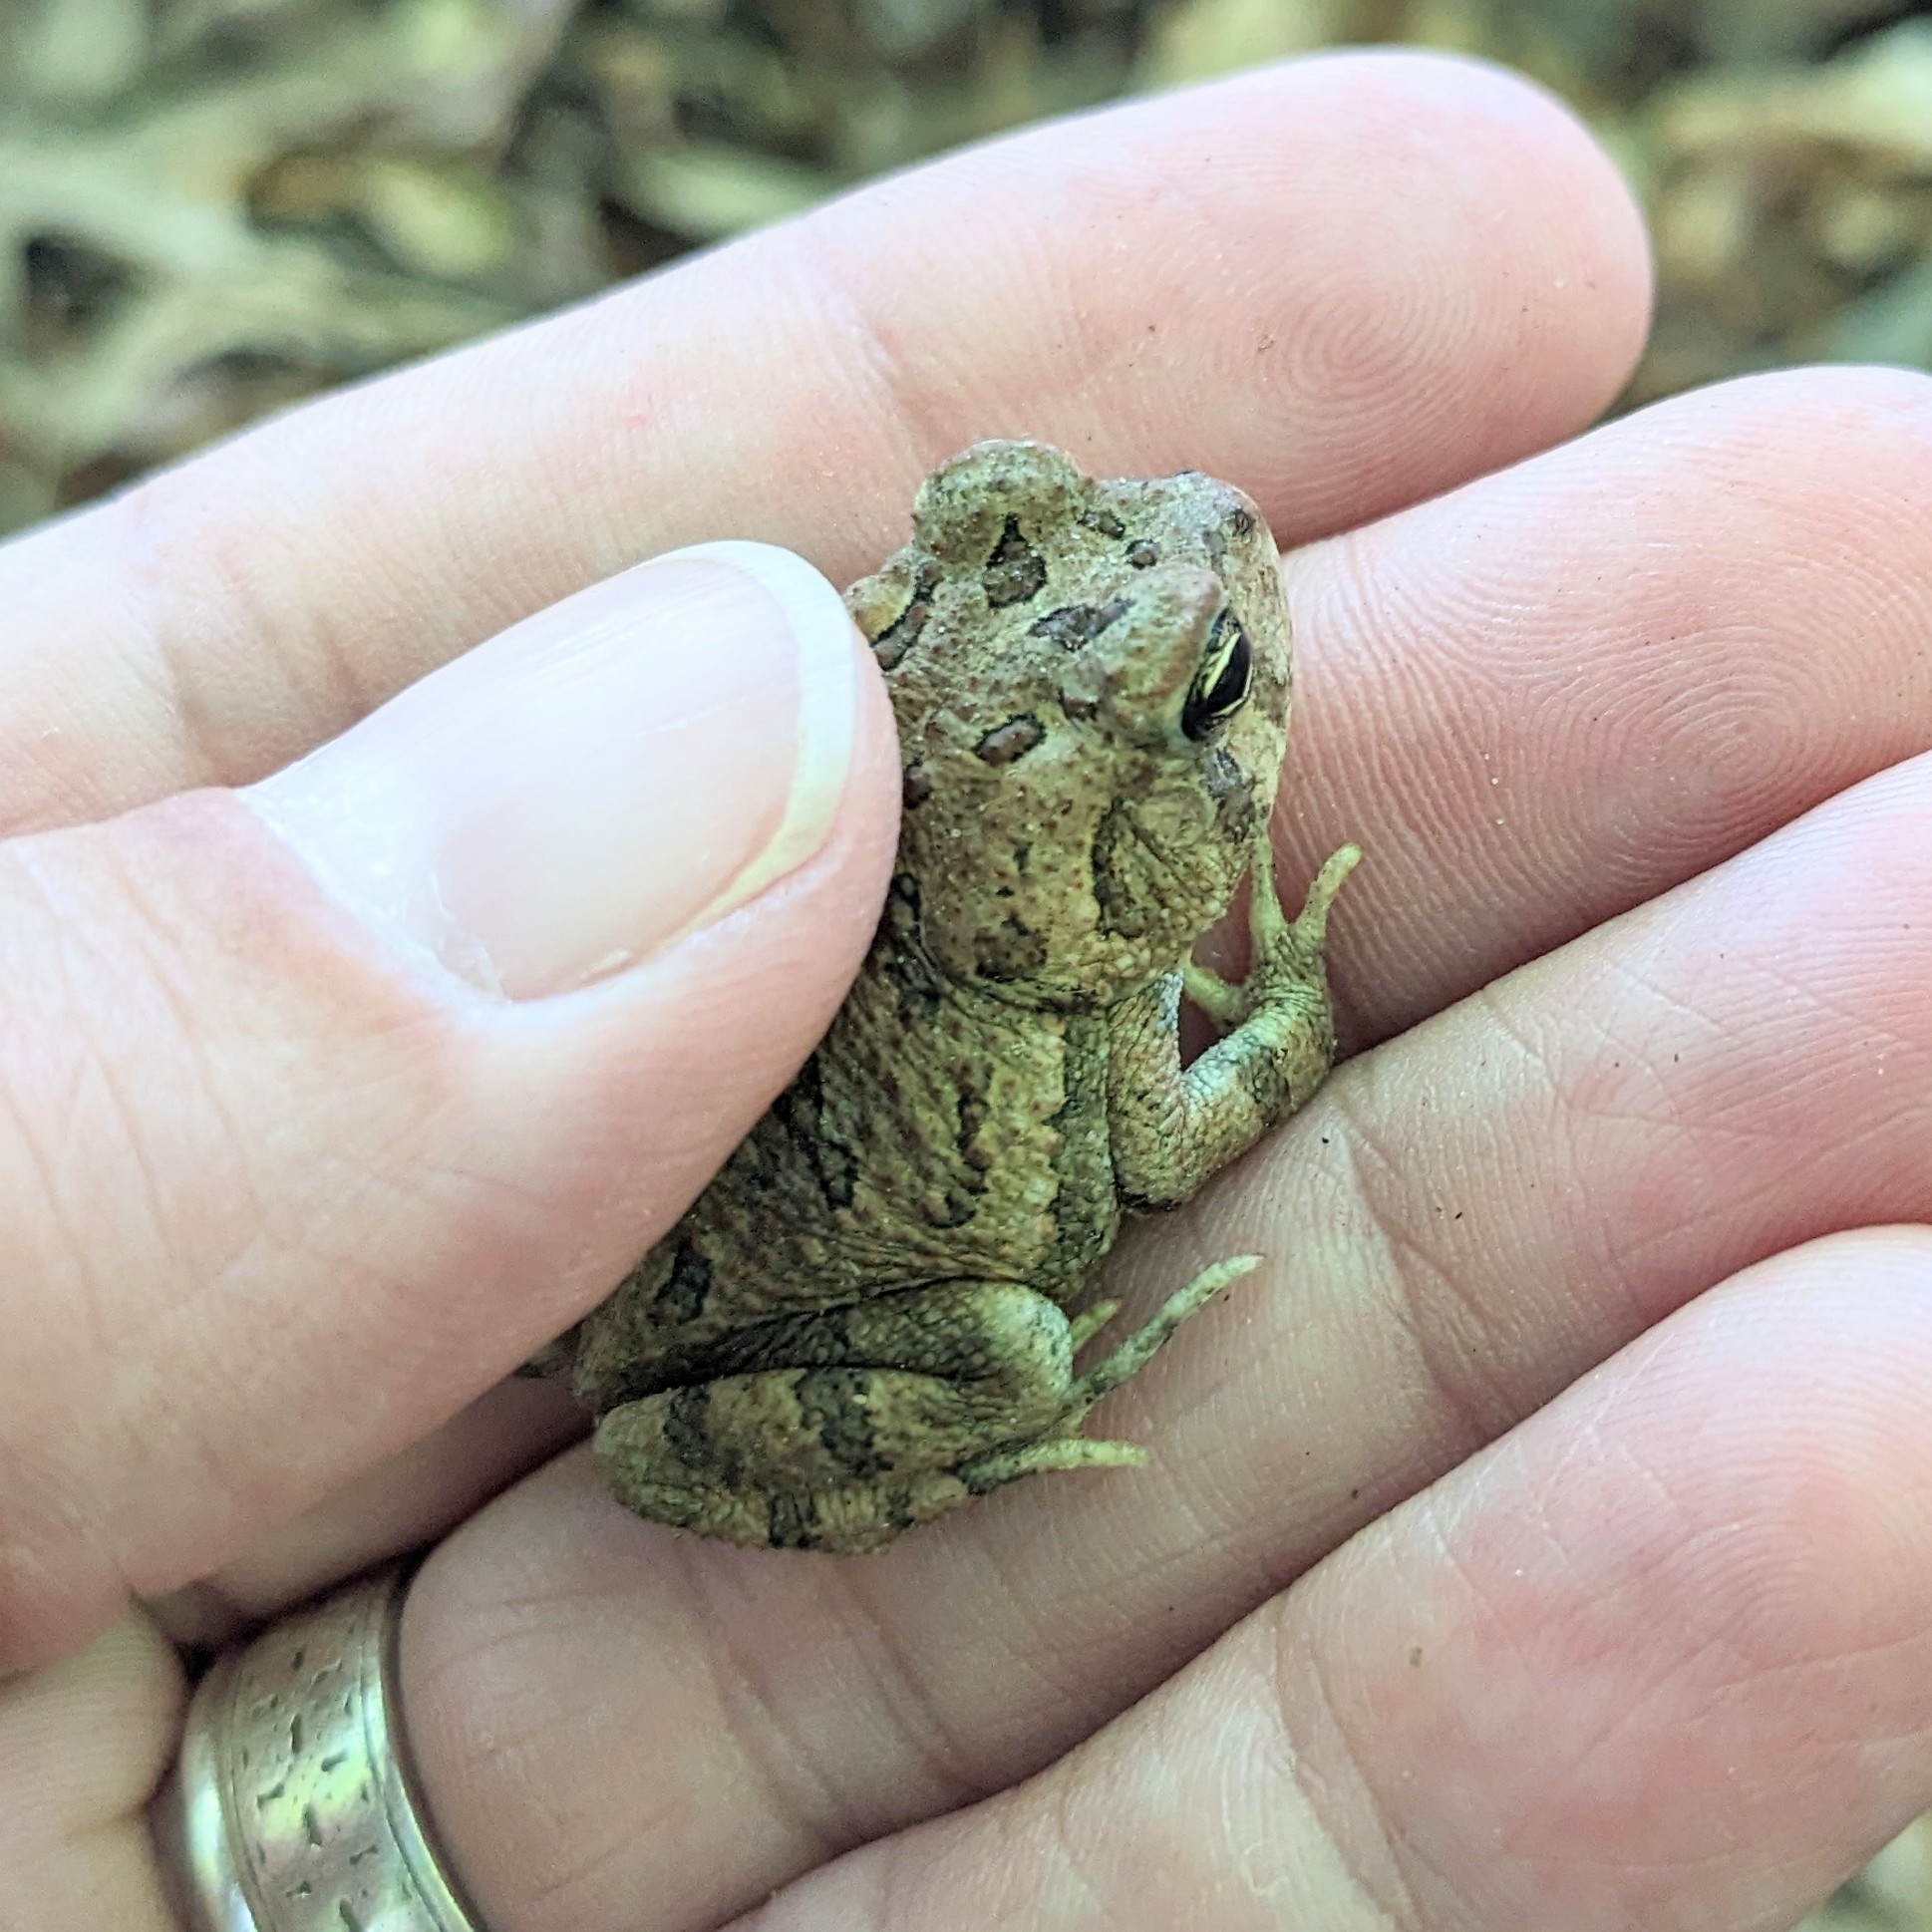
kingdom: Animalia
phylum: Chordata
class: Amphibia
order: Anura
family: Bufonidae
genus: Anaxyrus
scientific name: Anaxyrus fowleri
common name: Fowler's toad
